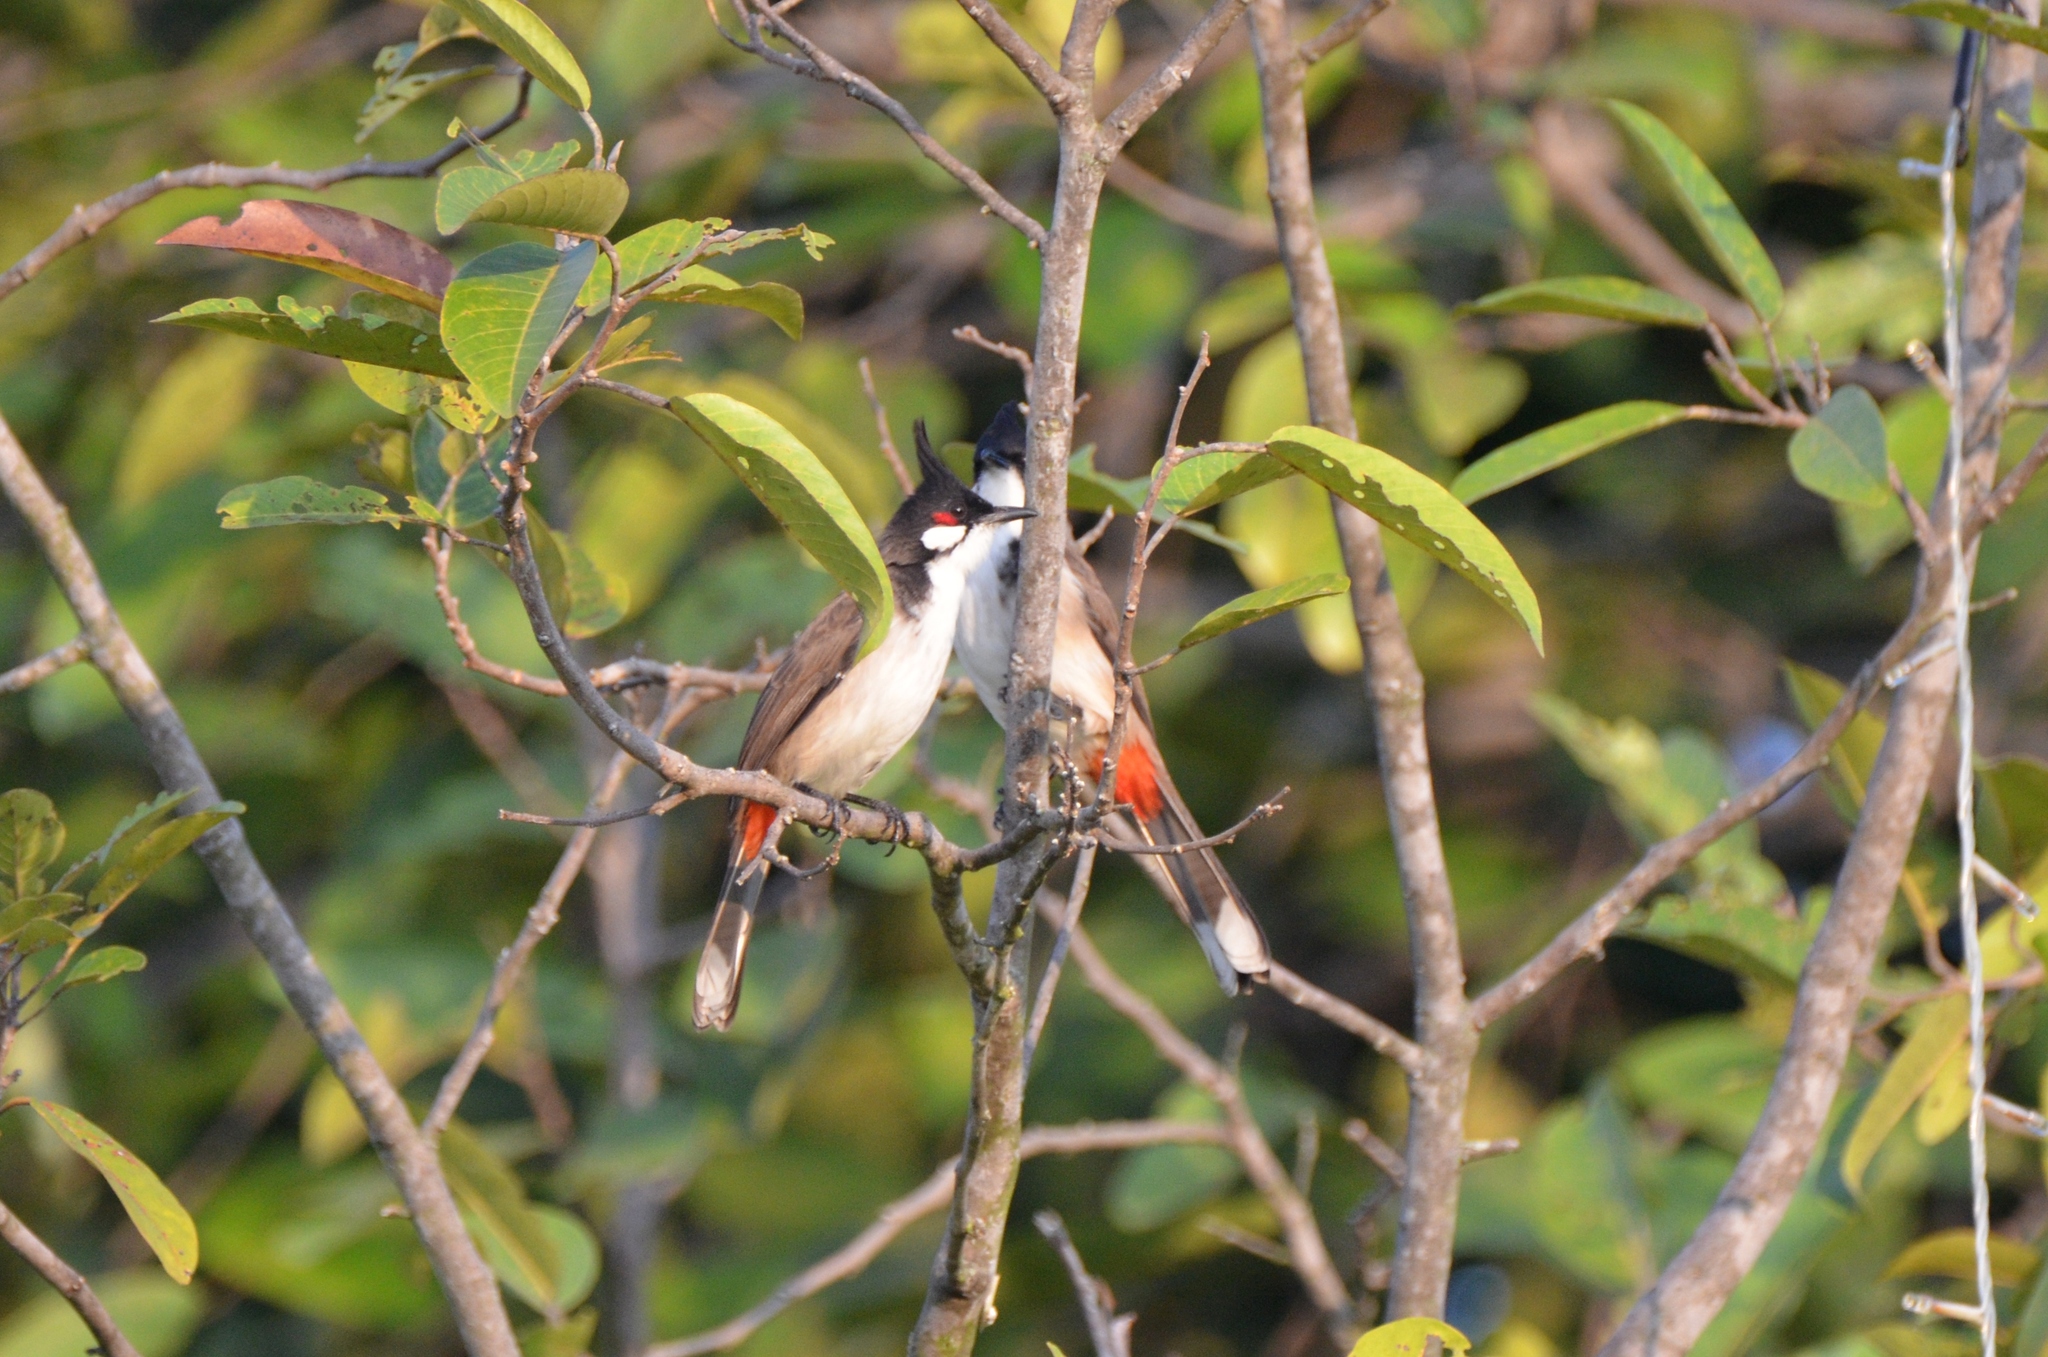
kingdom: Animalia
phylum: Chordata
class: Aves
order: Passeriformes
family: Pycnonotidae
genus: Pycnonotus
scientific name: Pycnonotus jocosus
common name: Red-whiskered bulbul
